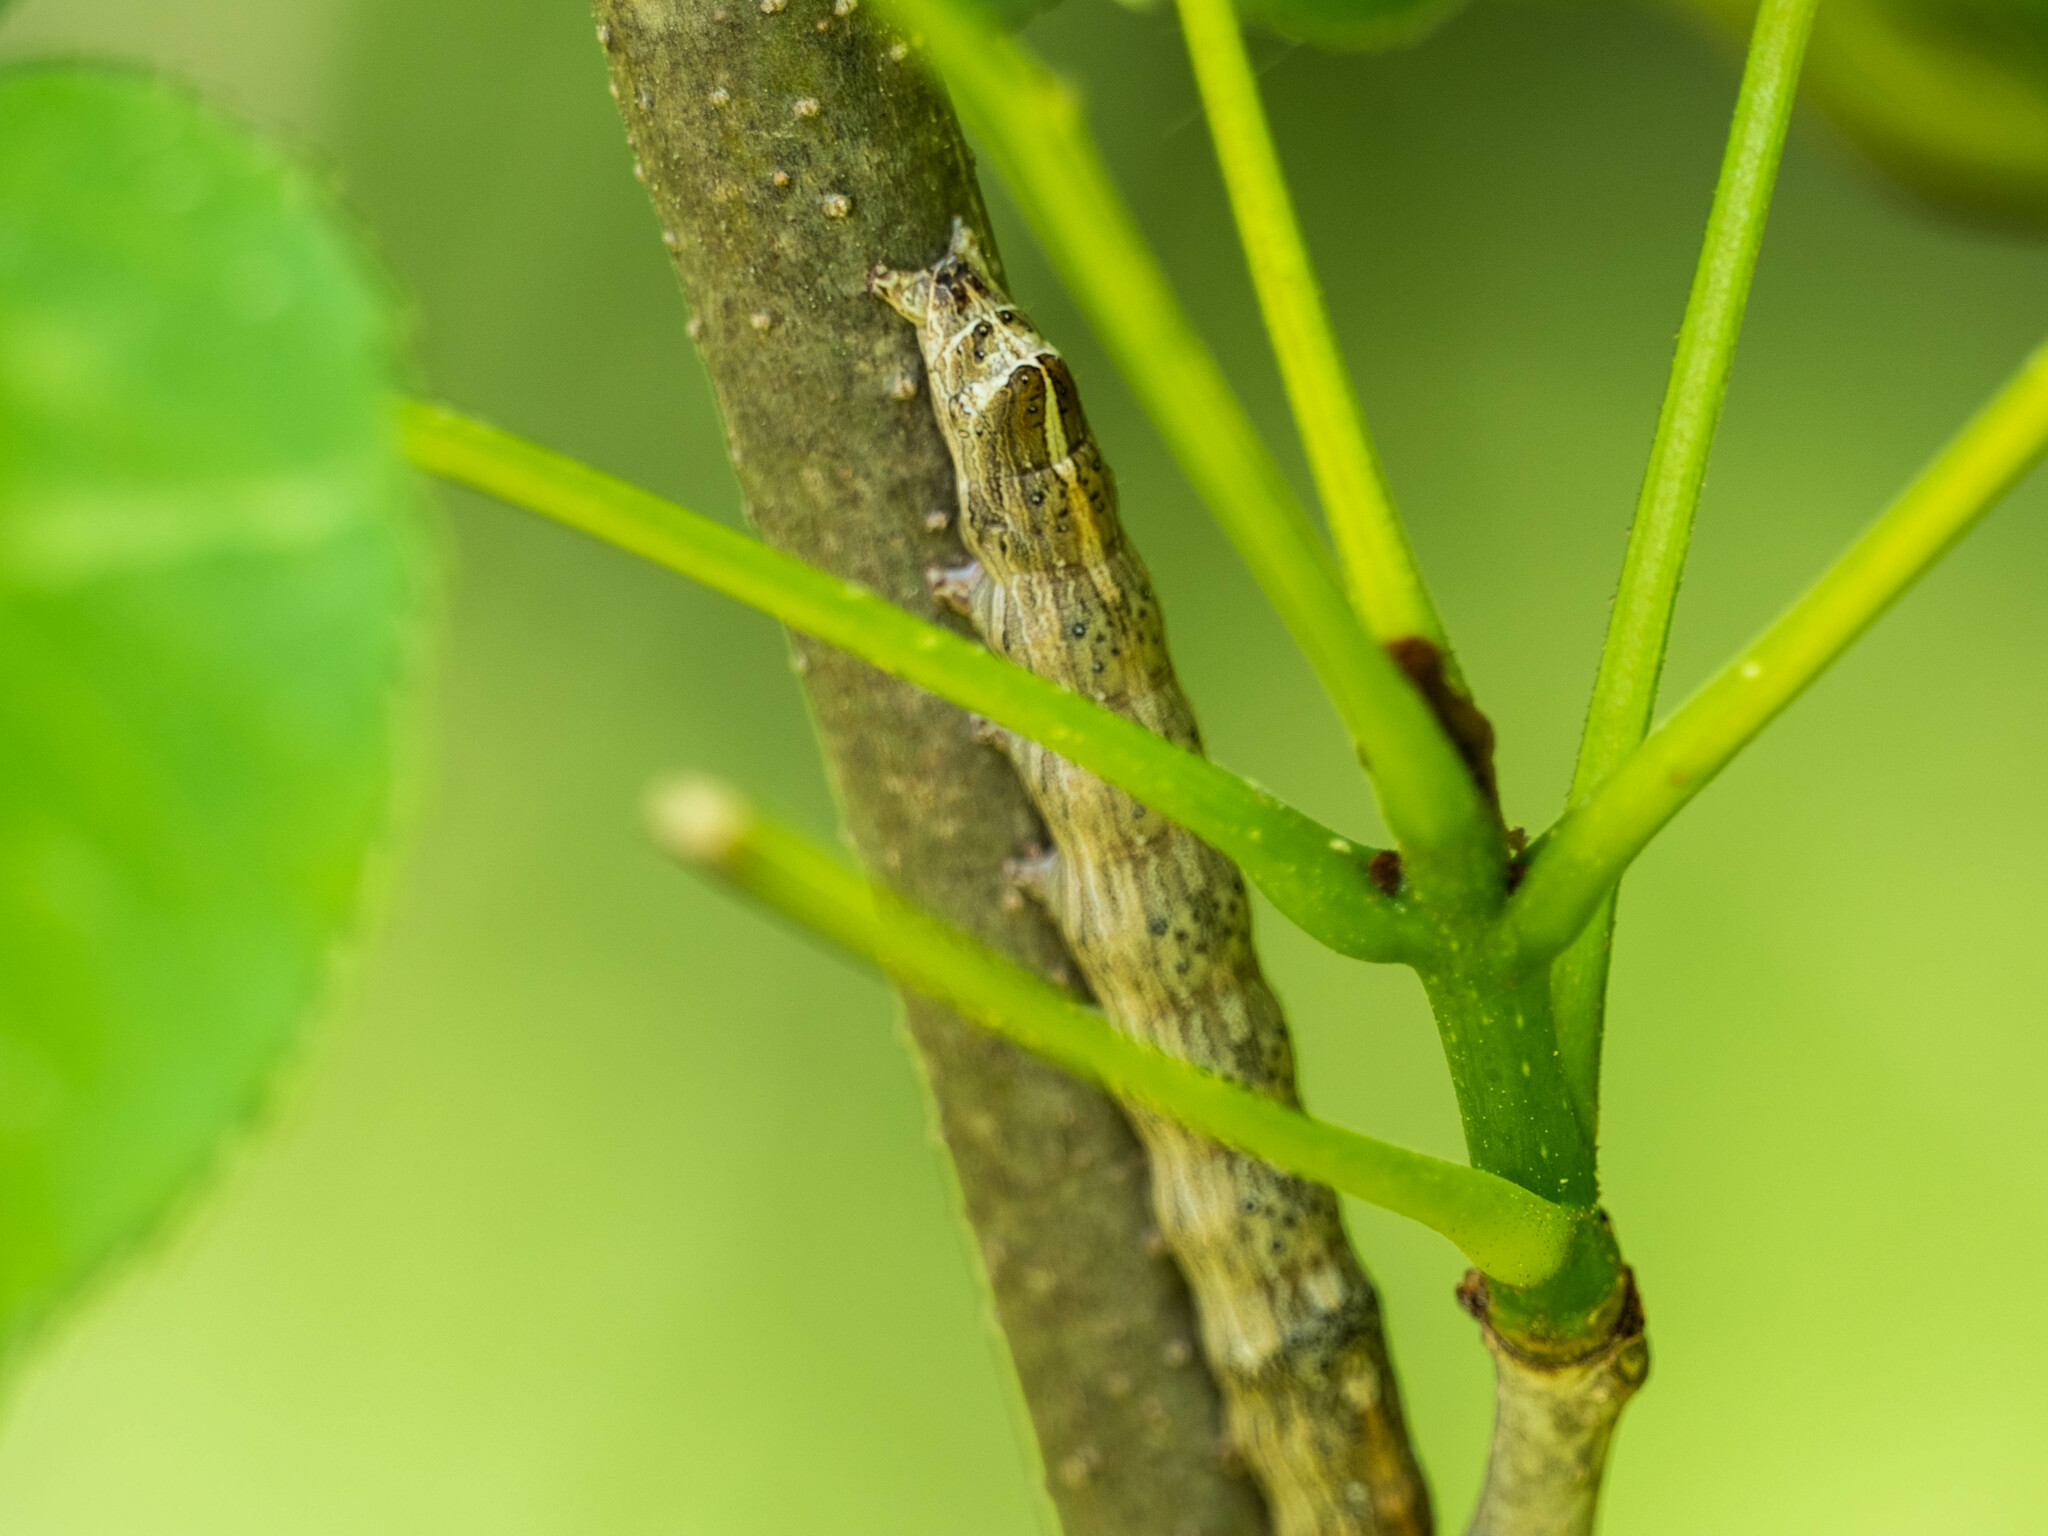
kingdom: Animalia
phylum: Arthropoda
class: Insecta
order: Lepidoptera
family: Noctuidae
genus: Sympistis
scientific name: Sympistis chionanthi
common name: Fringe-tree sallow
